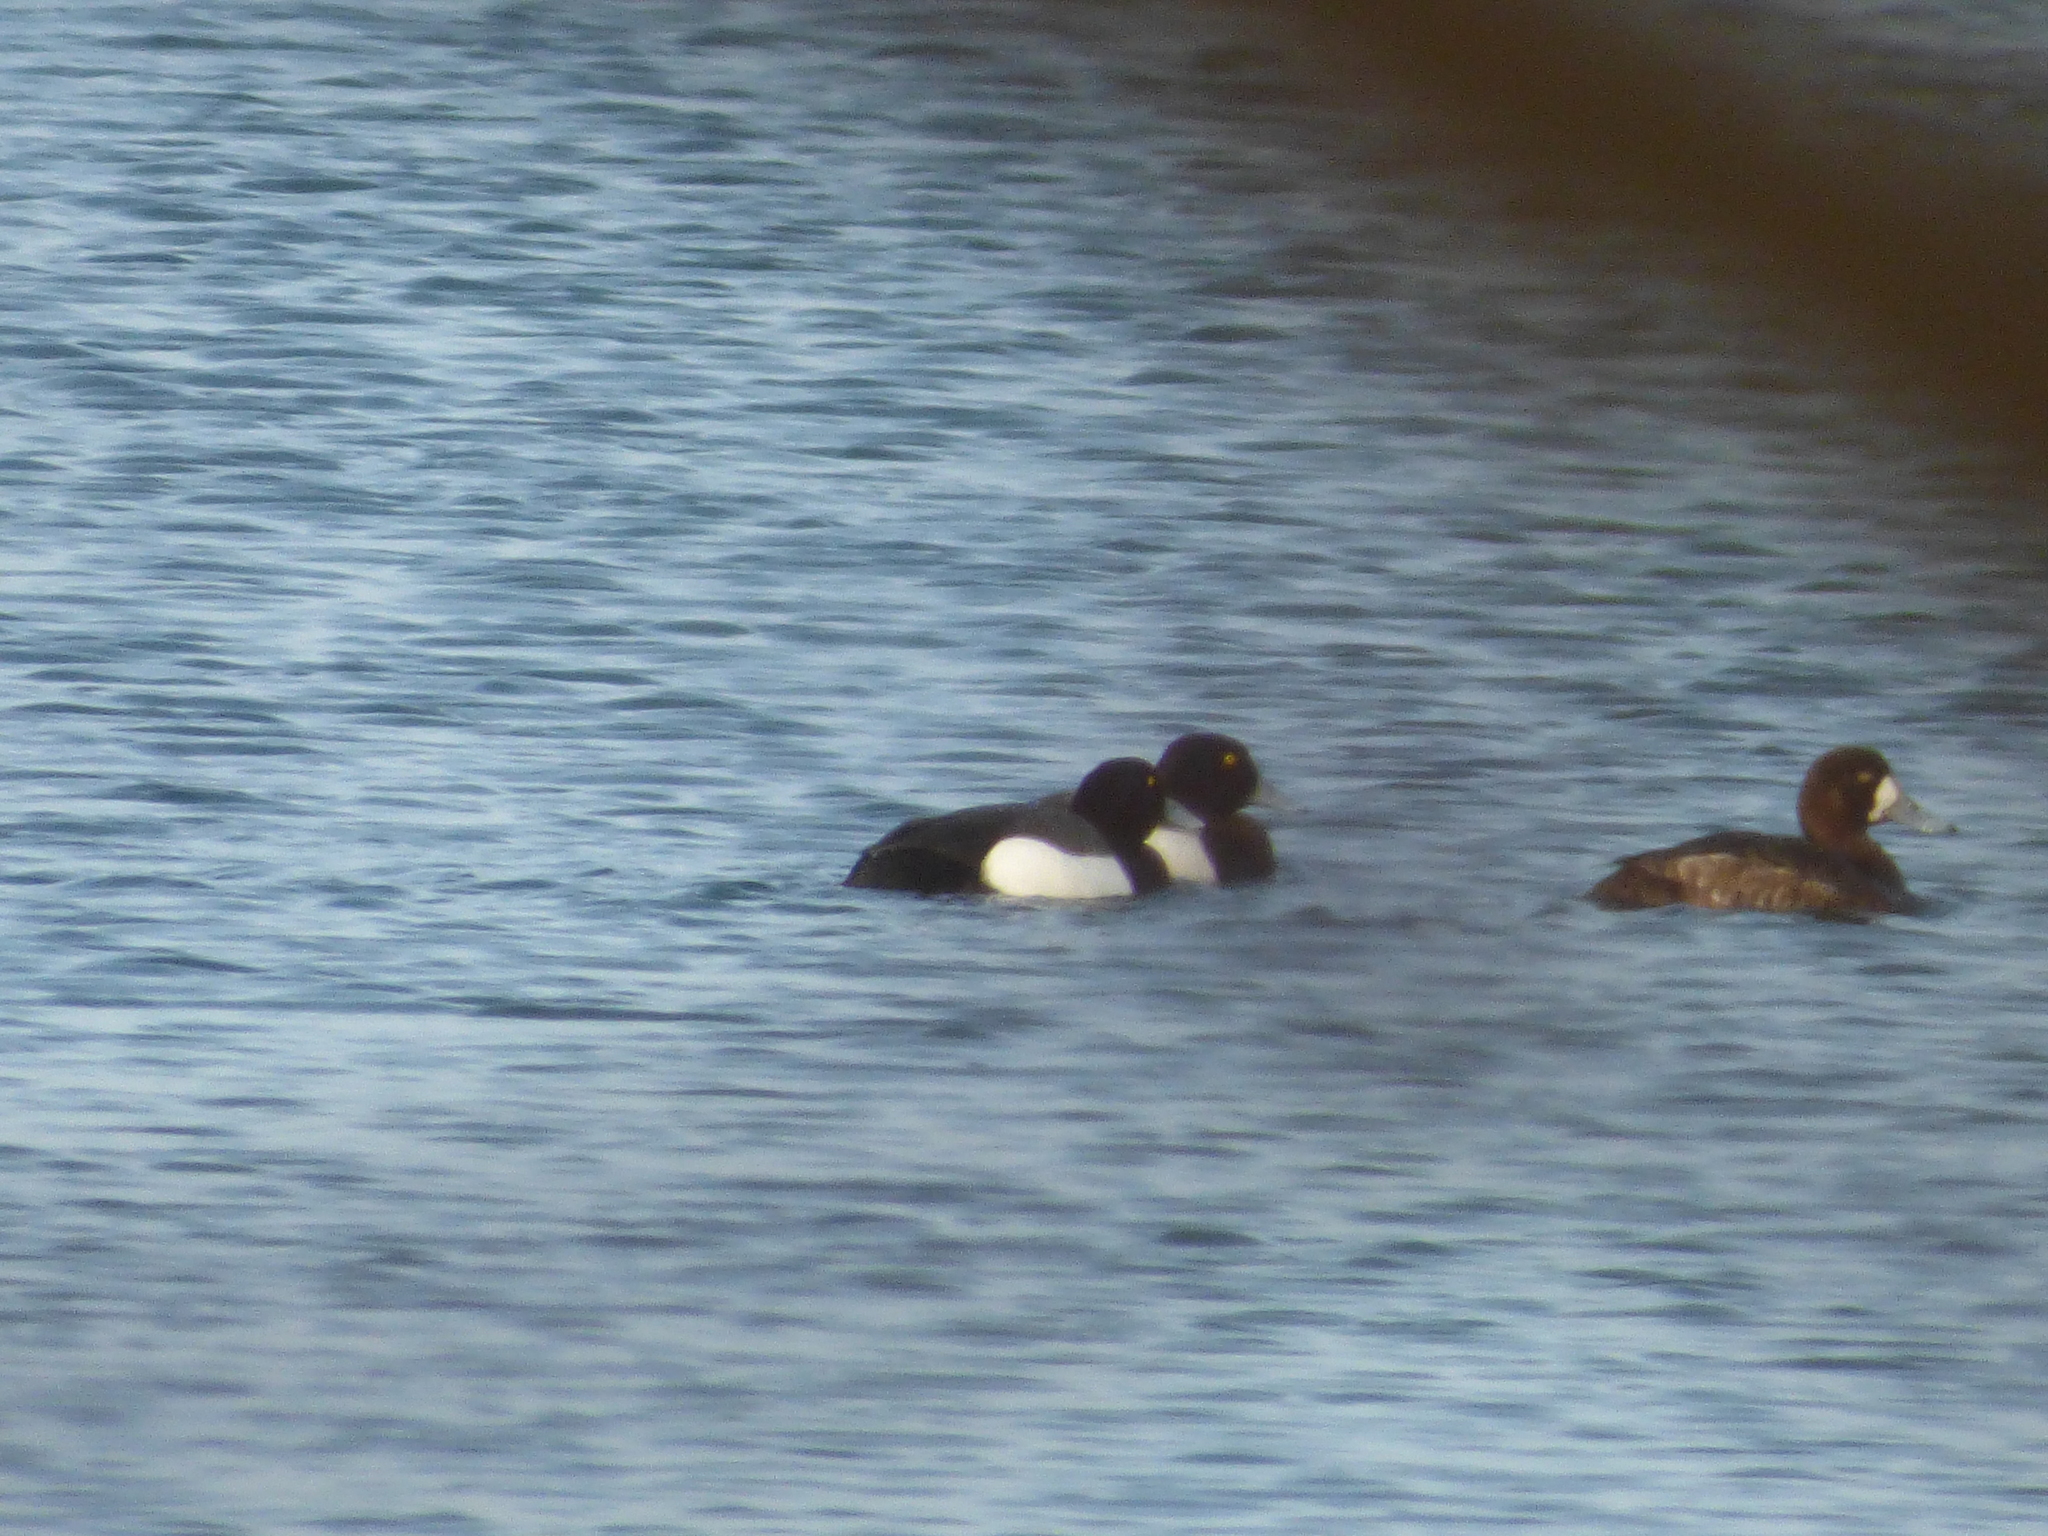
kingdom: Animalia
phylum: Chordata
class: Aves
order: Anseriformes
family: Anatidae
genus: Aythya
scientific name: Aythya marila
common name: Greater scaup
